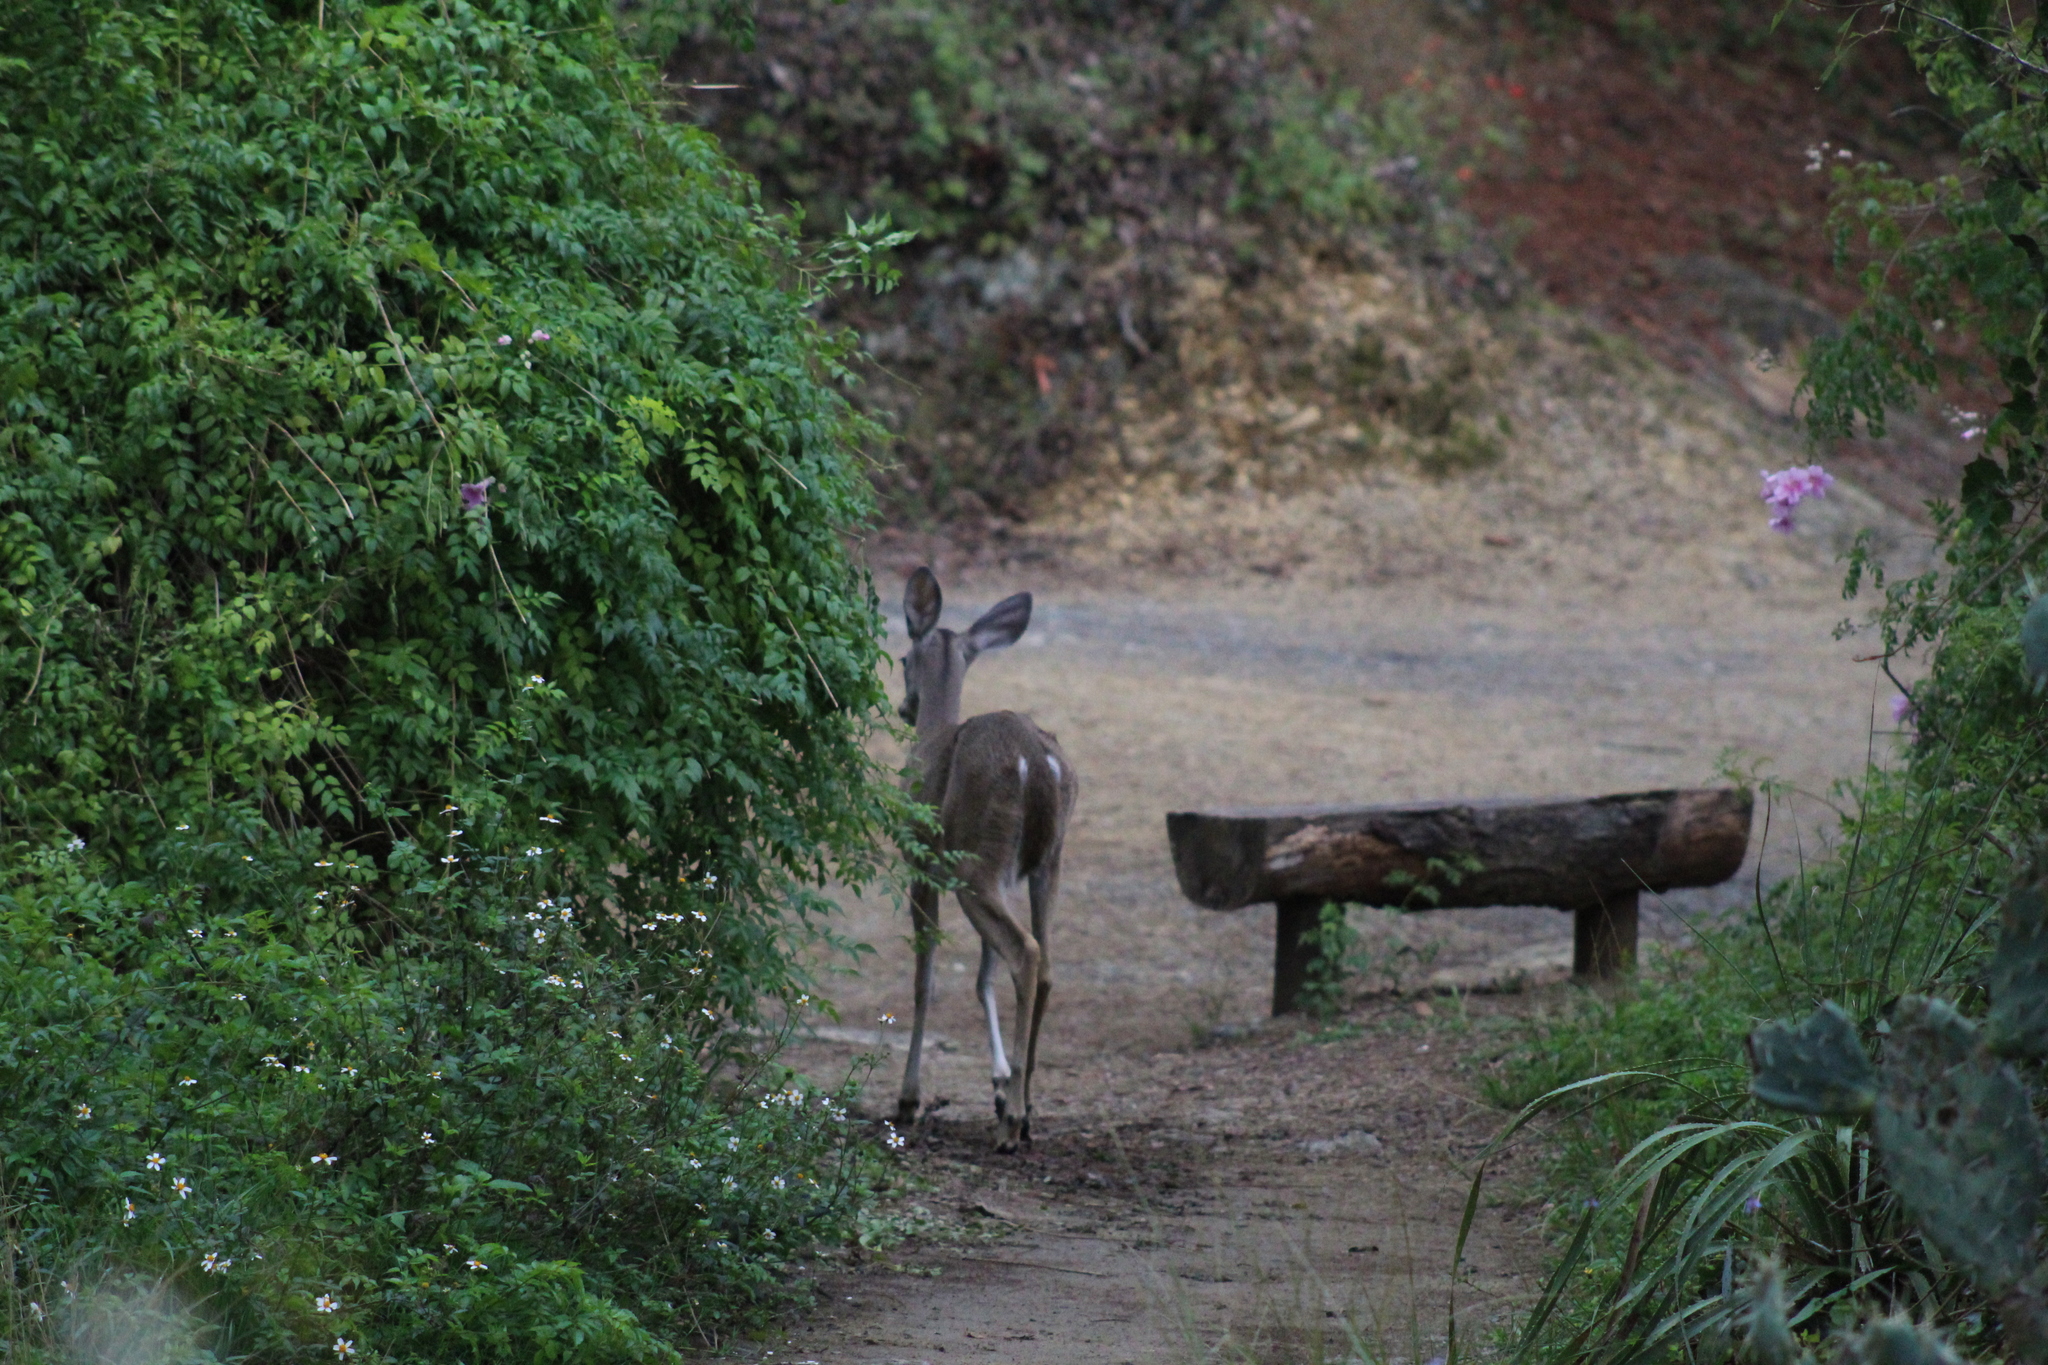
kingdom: Animalia
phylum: Chordata
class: Mammalia
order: Artiodactyla
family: Cervidae
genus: Odocoileus
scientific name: Odocoileus virginianus
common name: White-tailed deer
